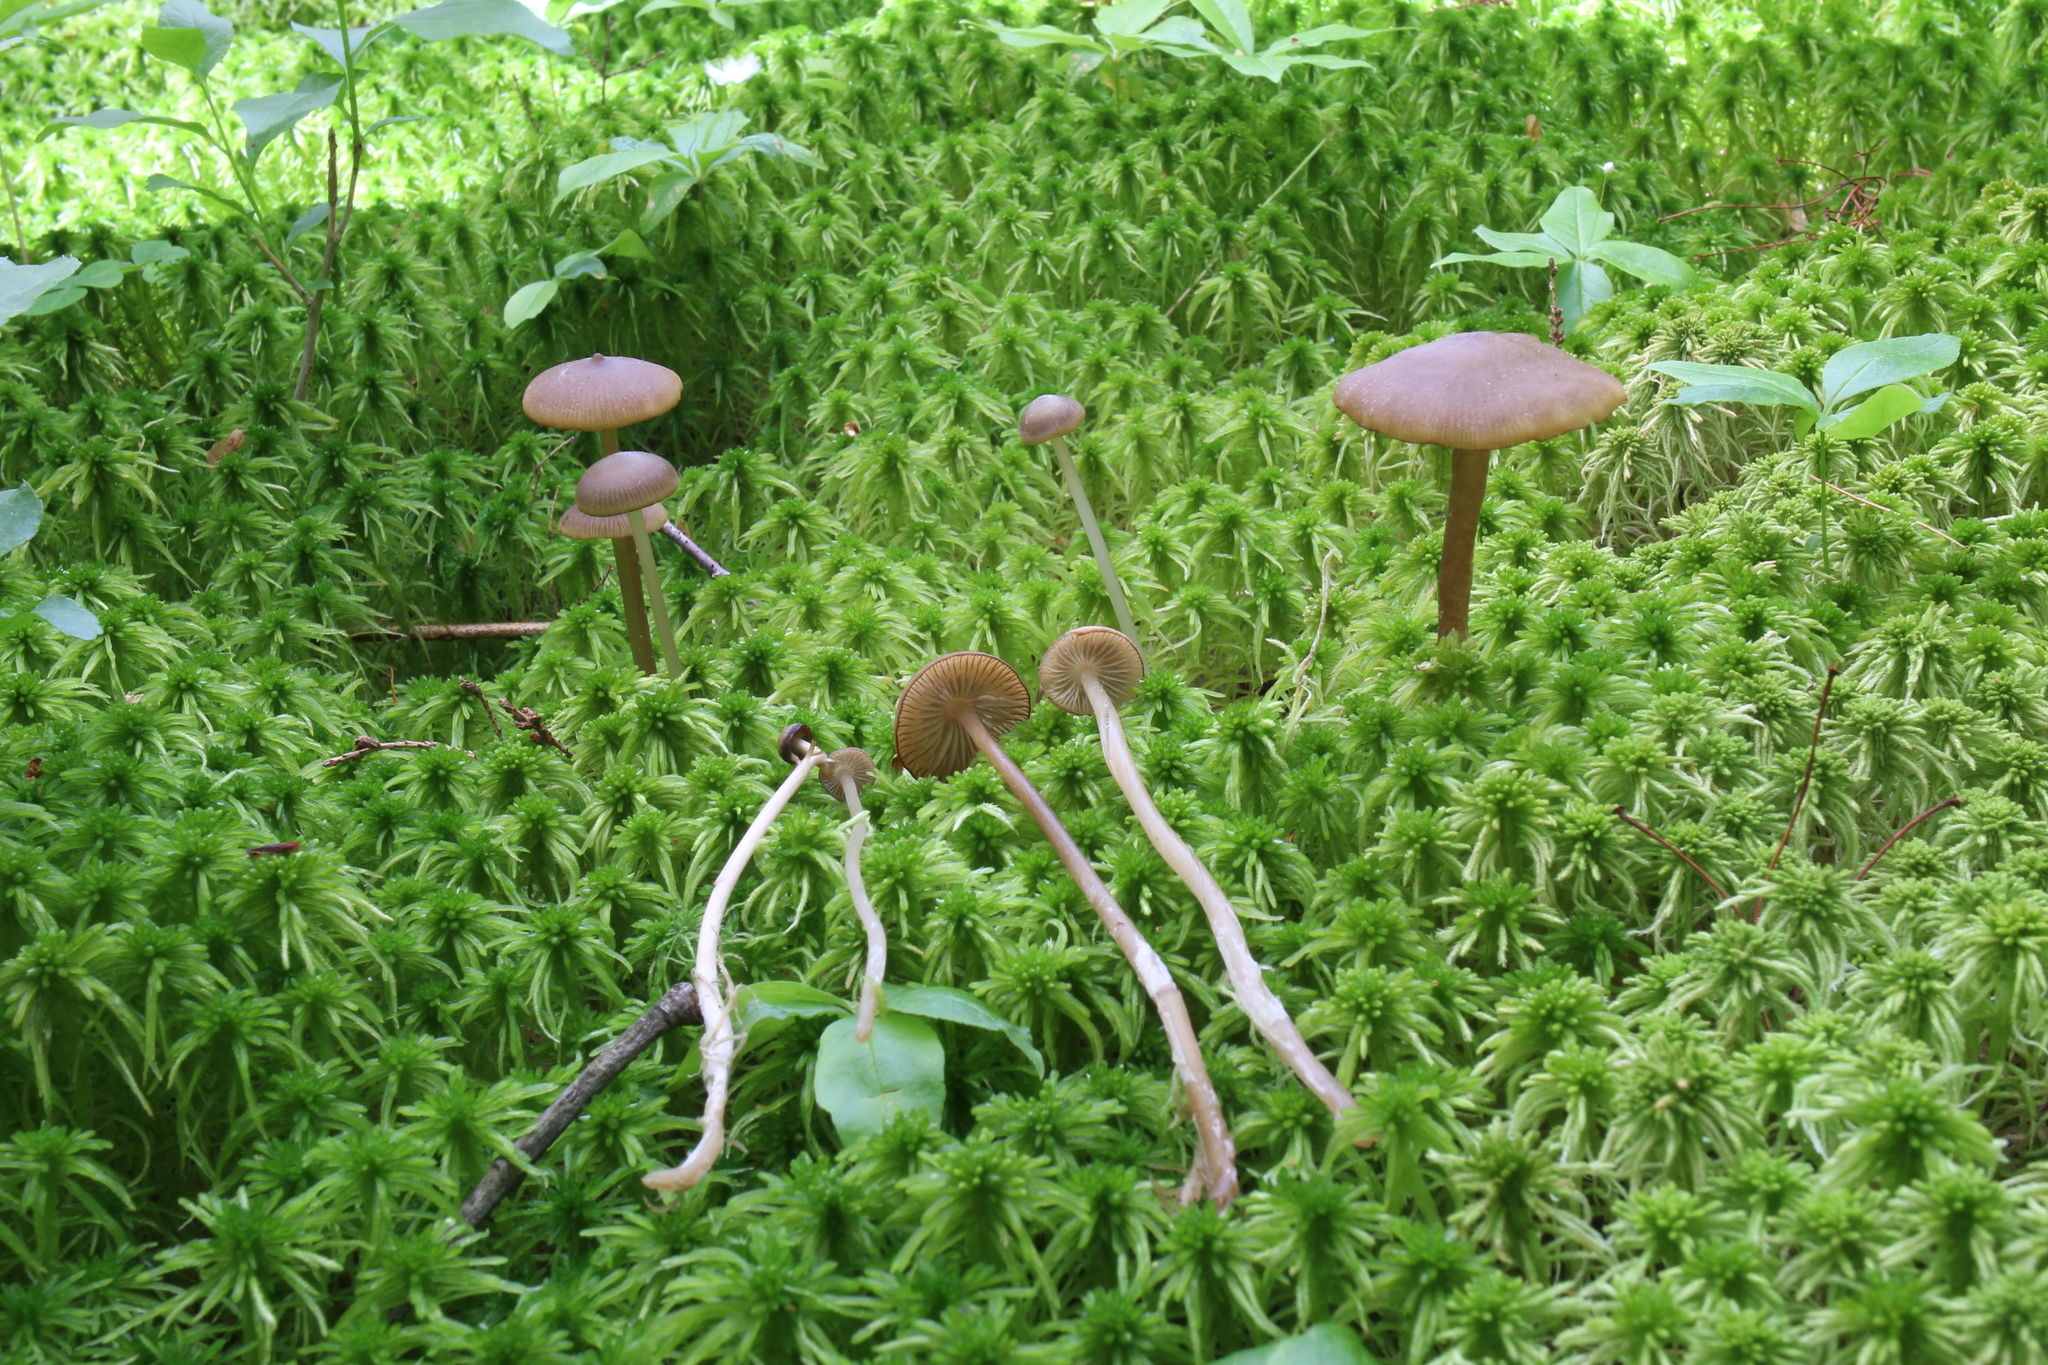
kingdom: Fungi
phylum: Basidiomycota
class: Agaricomycetes
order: Agaricales
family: Lyophyllaceae
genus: Sphagnurus
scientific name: Sphagnurus paluster
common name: Sphagnum greyling
